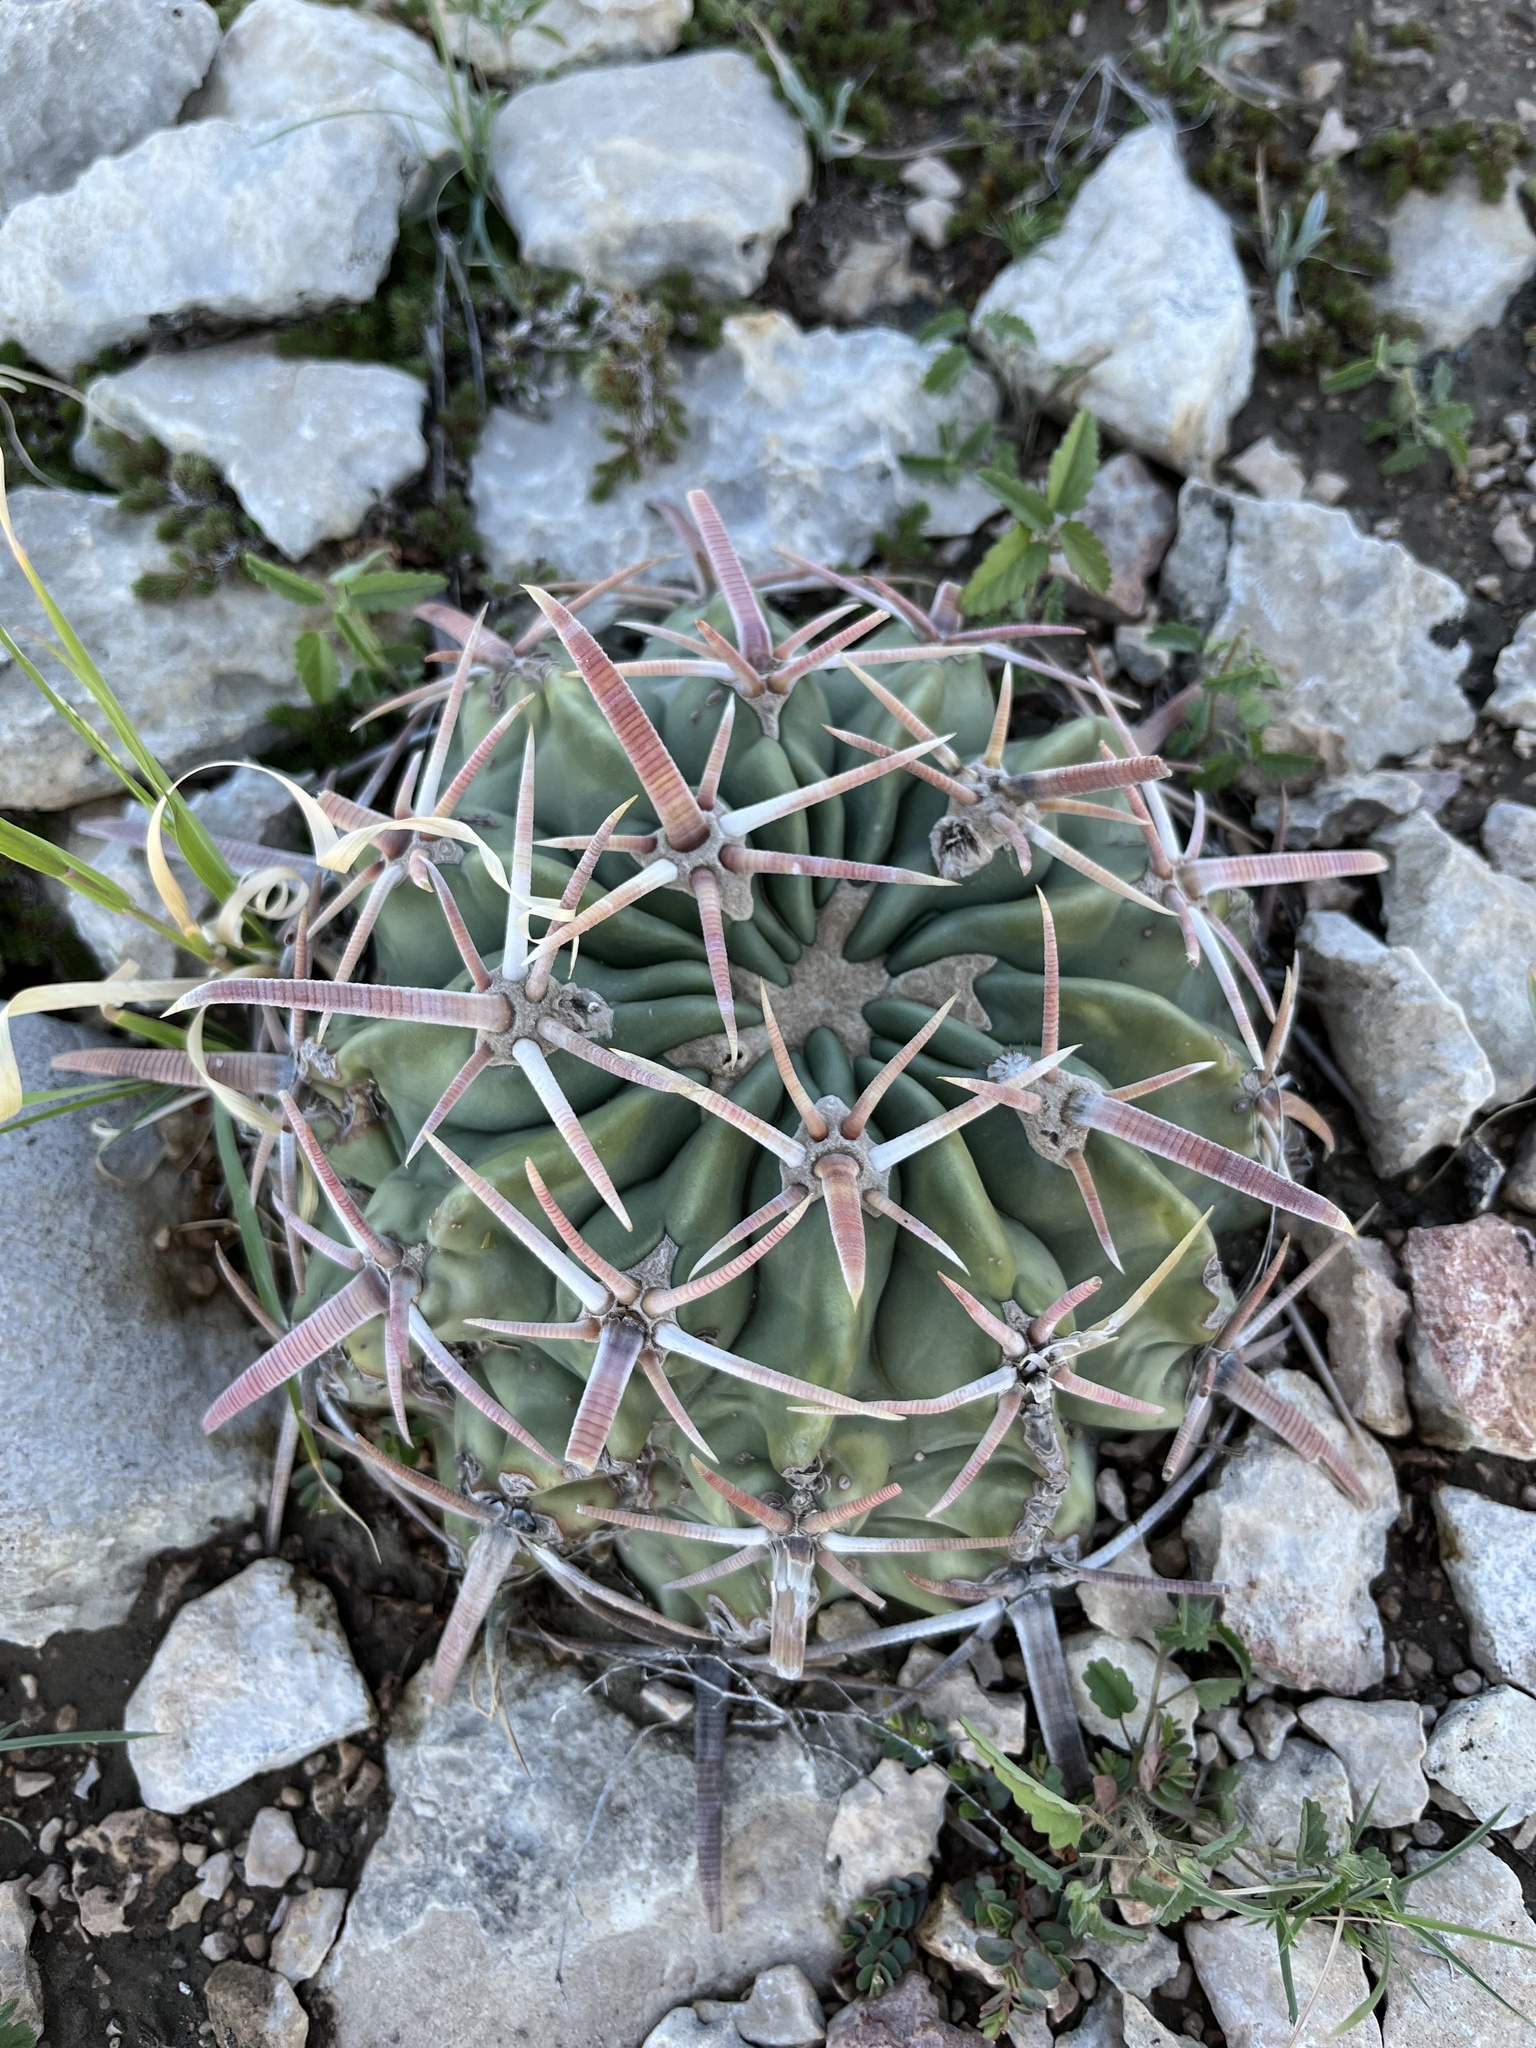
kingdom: Plantae
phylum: Tracheophyta
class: Magnoliopsida
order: Caryophyllales
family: Cactaceae
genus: Echinocactus
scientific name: Echinocactus texensis
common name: Devil's pincushion
